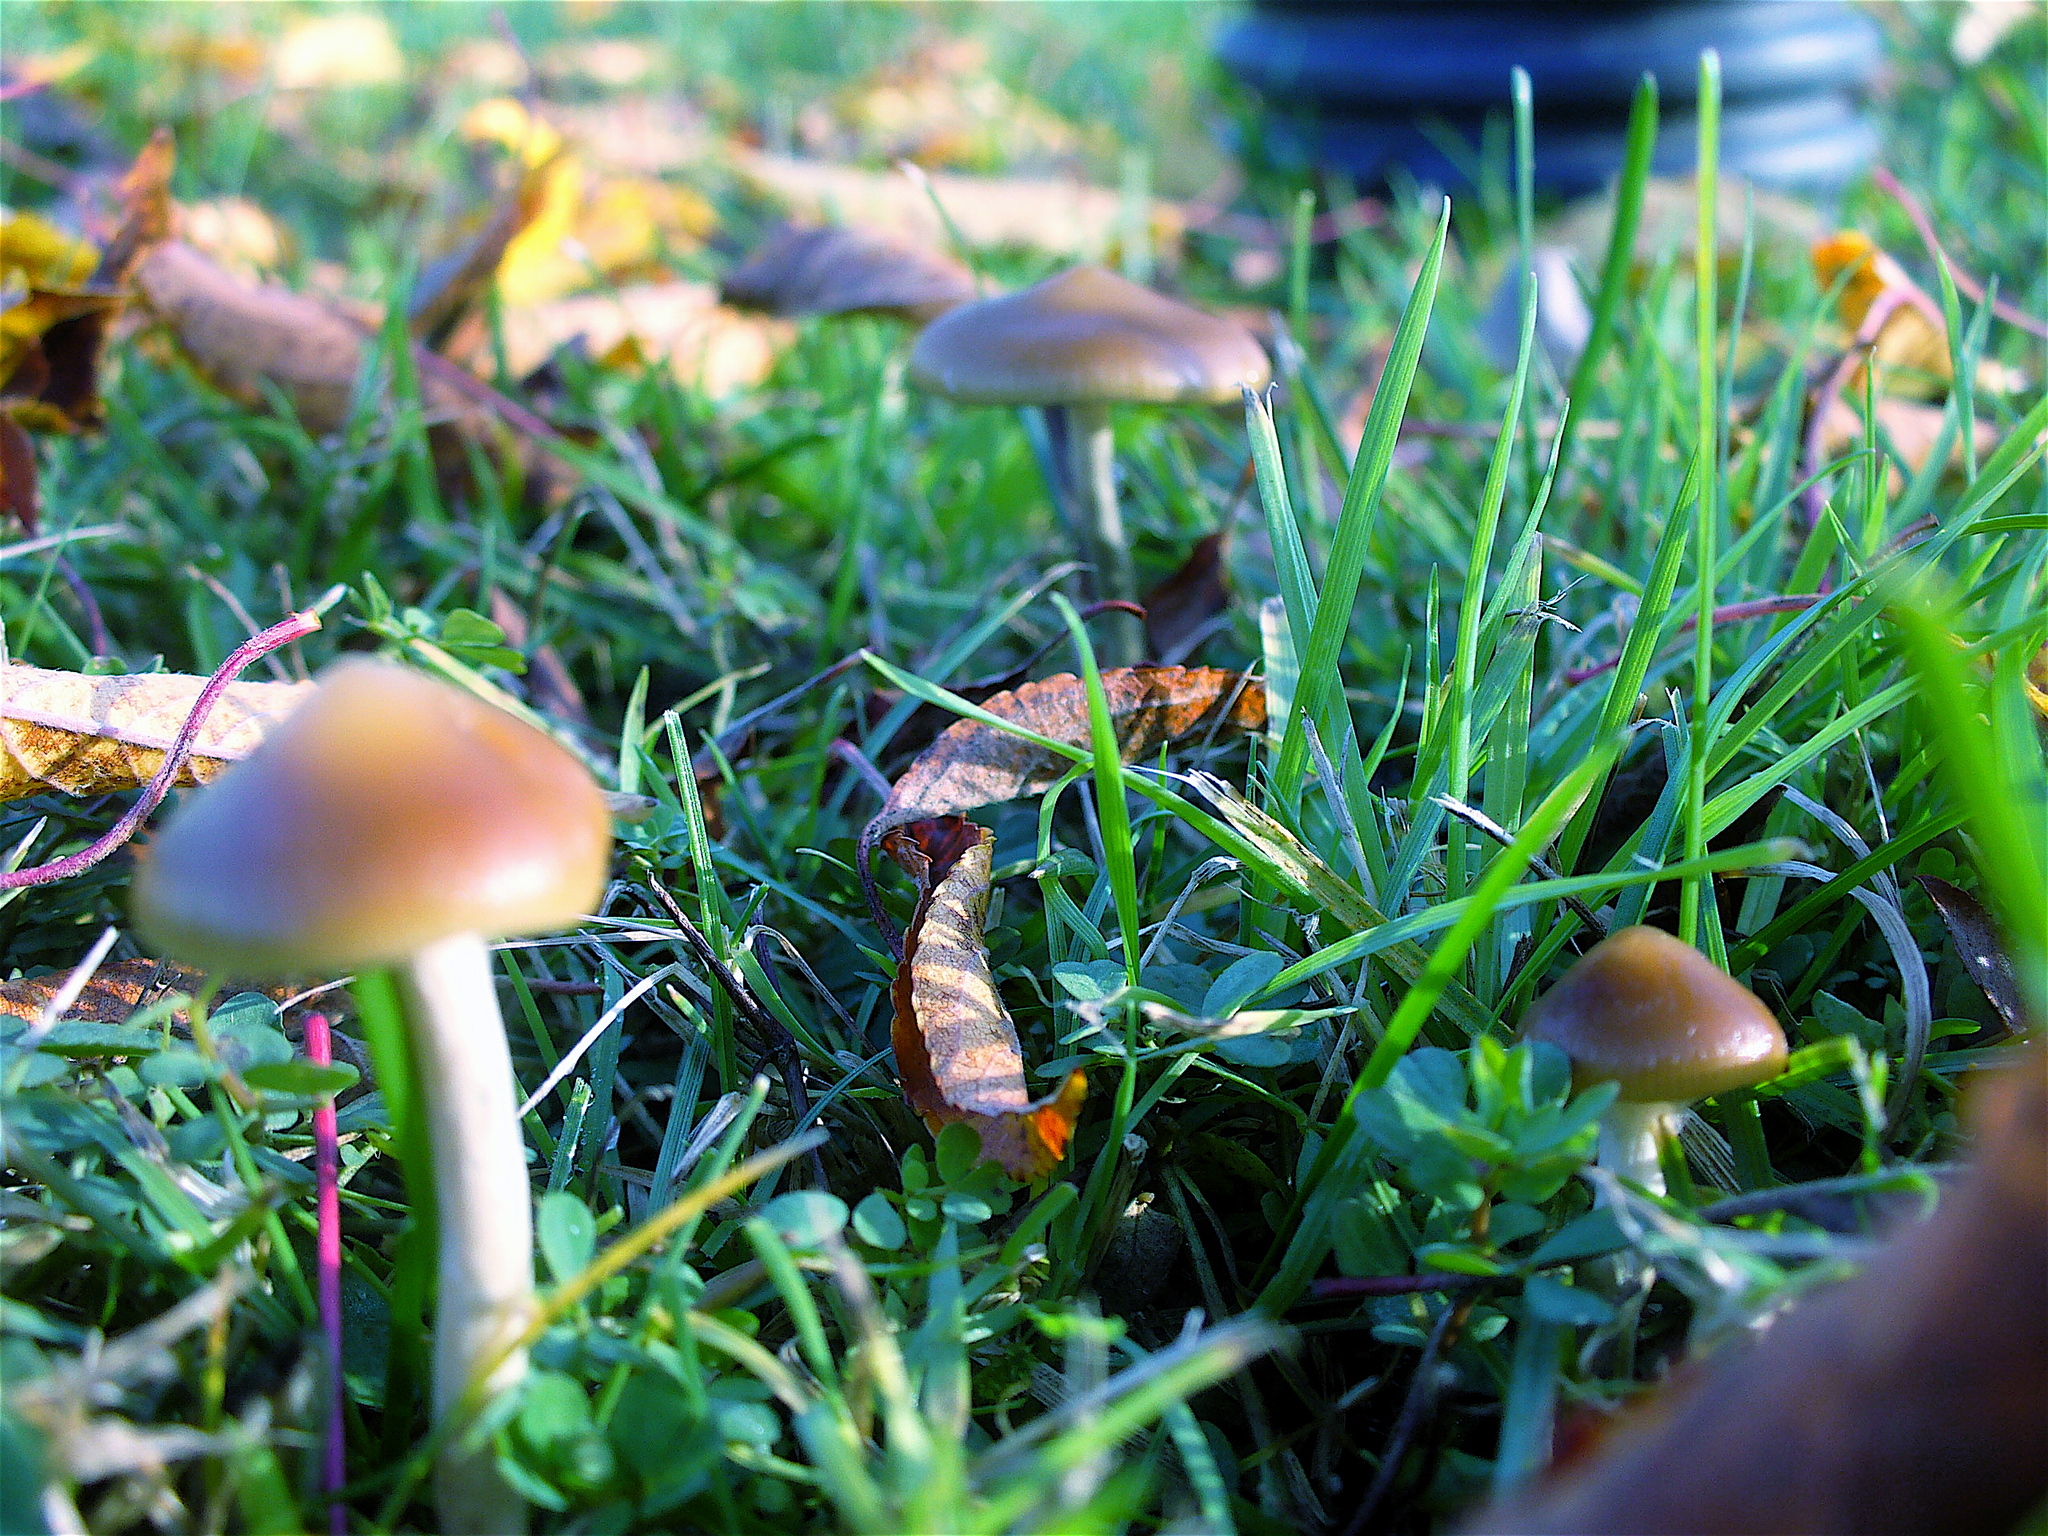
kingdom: Fungi
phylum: Basidiomycota
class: Agaricomycetes
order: Agaricales
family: Hymenogastraceae
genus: Psilocybe
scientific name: Psilocybe cyanescens
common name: Blueleg brownie
